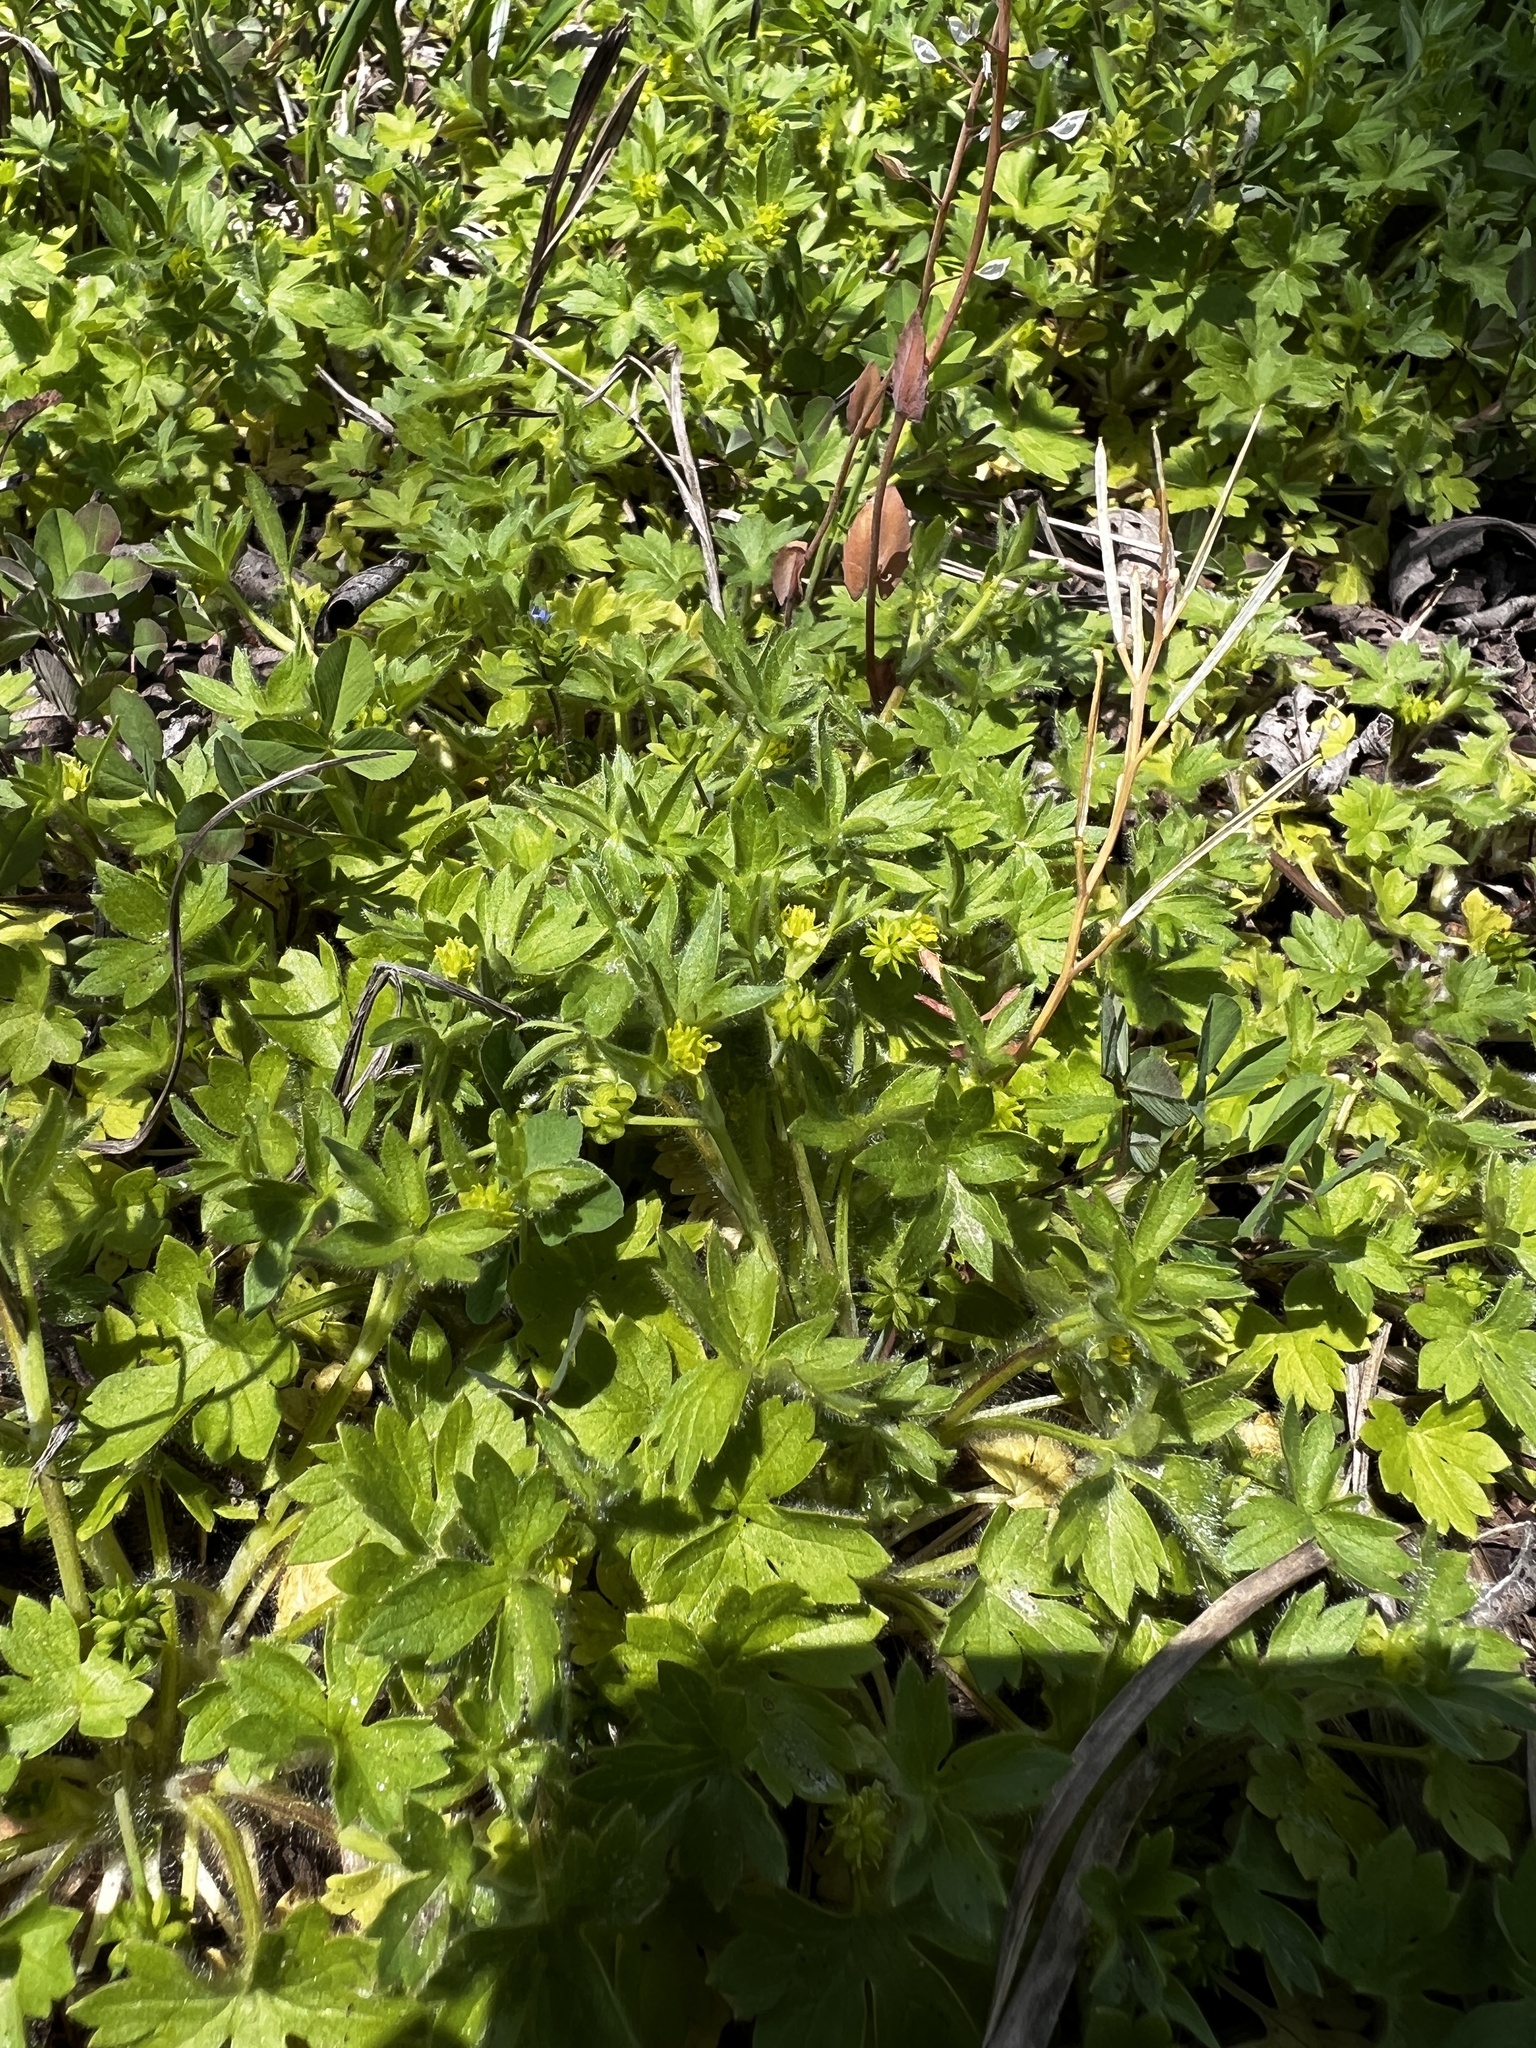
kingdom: Plantae
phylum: Tracheophyta
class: Magnoliopsida
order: Ranunculales
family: Ranunculaceae
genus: Ranunculus
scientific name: Ranunculus parviflorus
